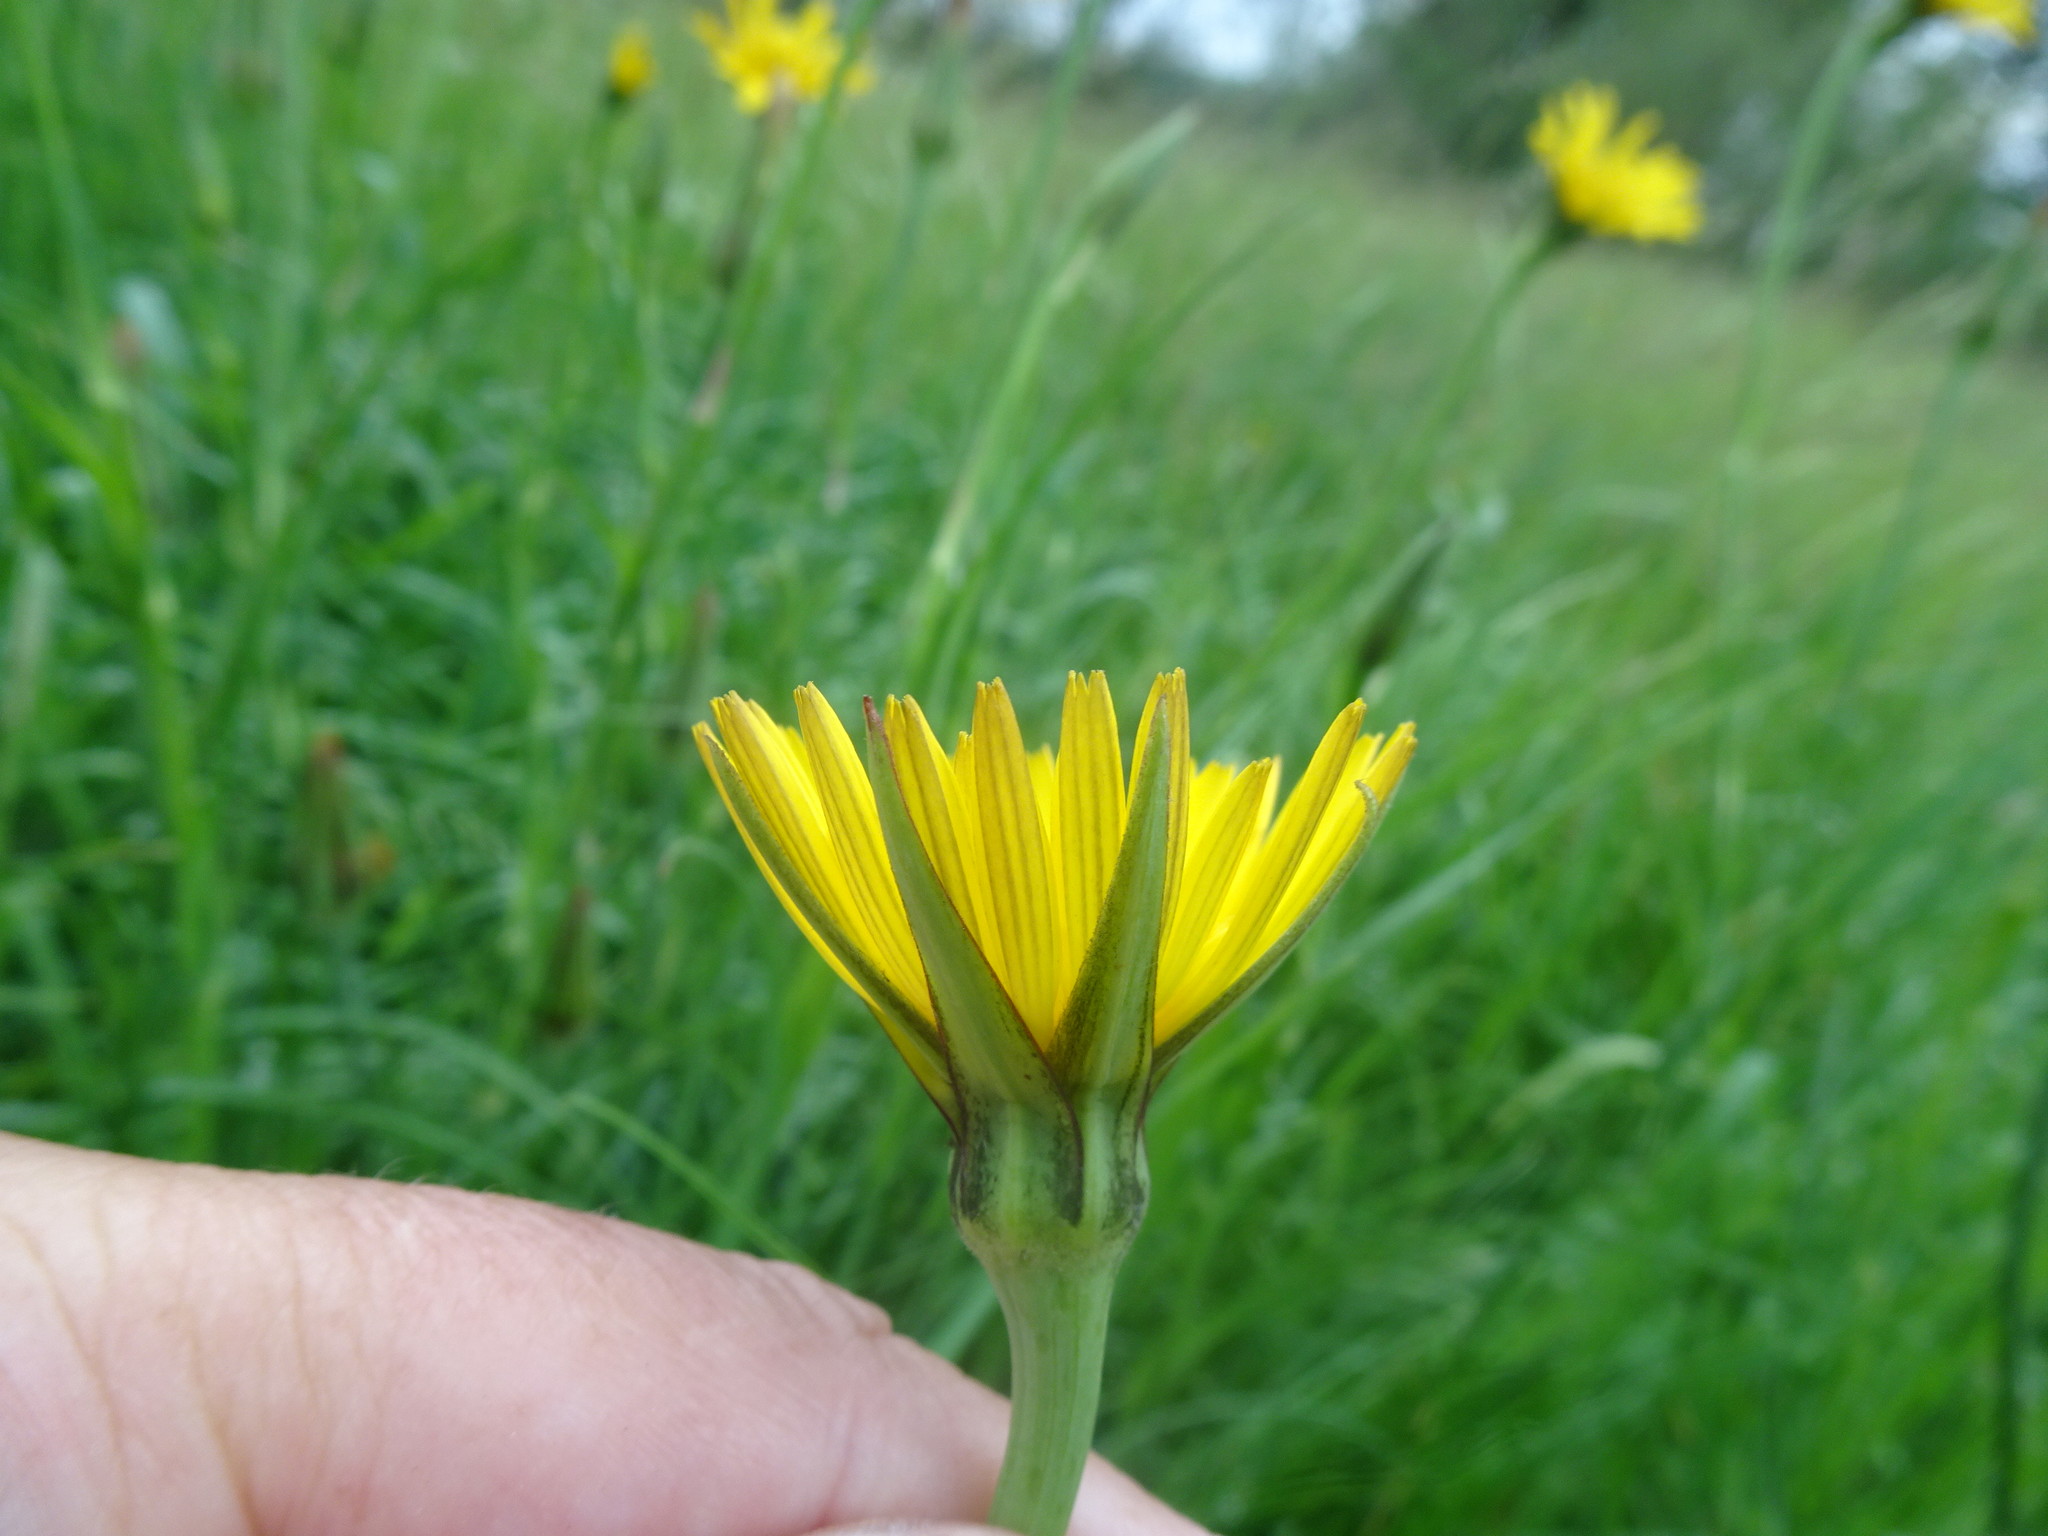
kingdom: Plantae
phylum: Tracheophyta
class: Magnoliopsida
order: Asterales
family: Asteraceae
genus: Tragopogon
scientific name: Tragopogon pratensis
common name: Goat's-beard
